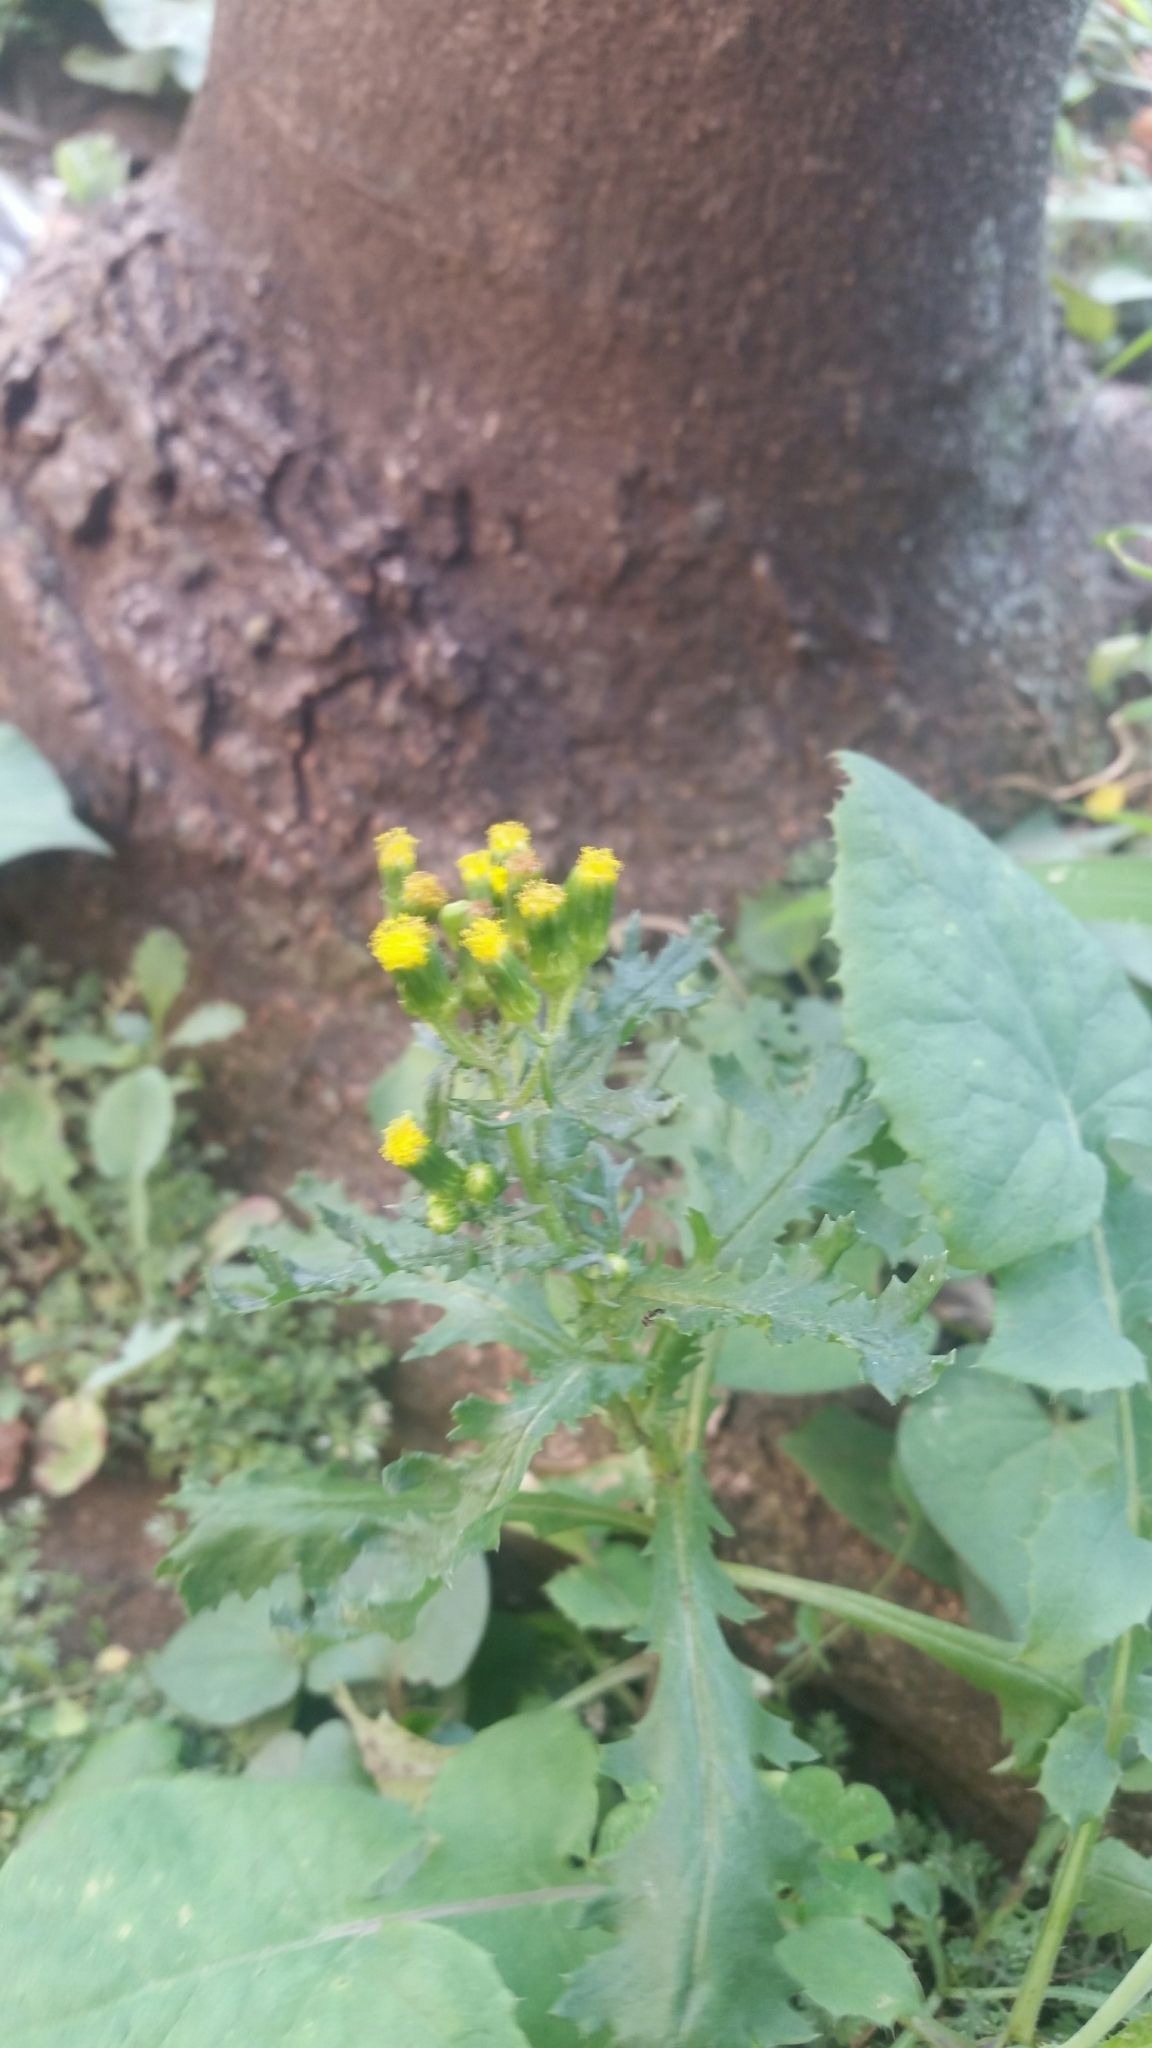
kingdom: Plantae
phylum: Tracheophyta
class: Magnoliopsida
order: Asterales
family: Asteraceae
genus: Senecio
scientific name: Senecio vulgaris
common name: Old-man-in-the-spring
